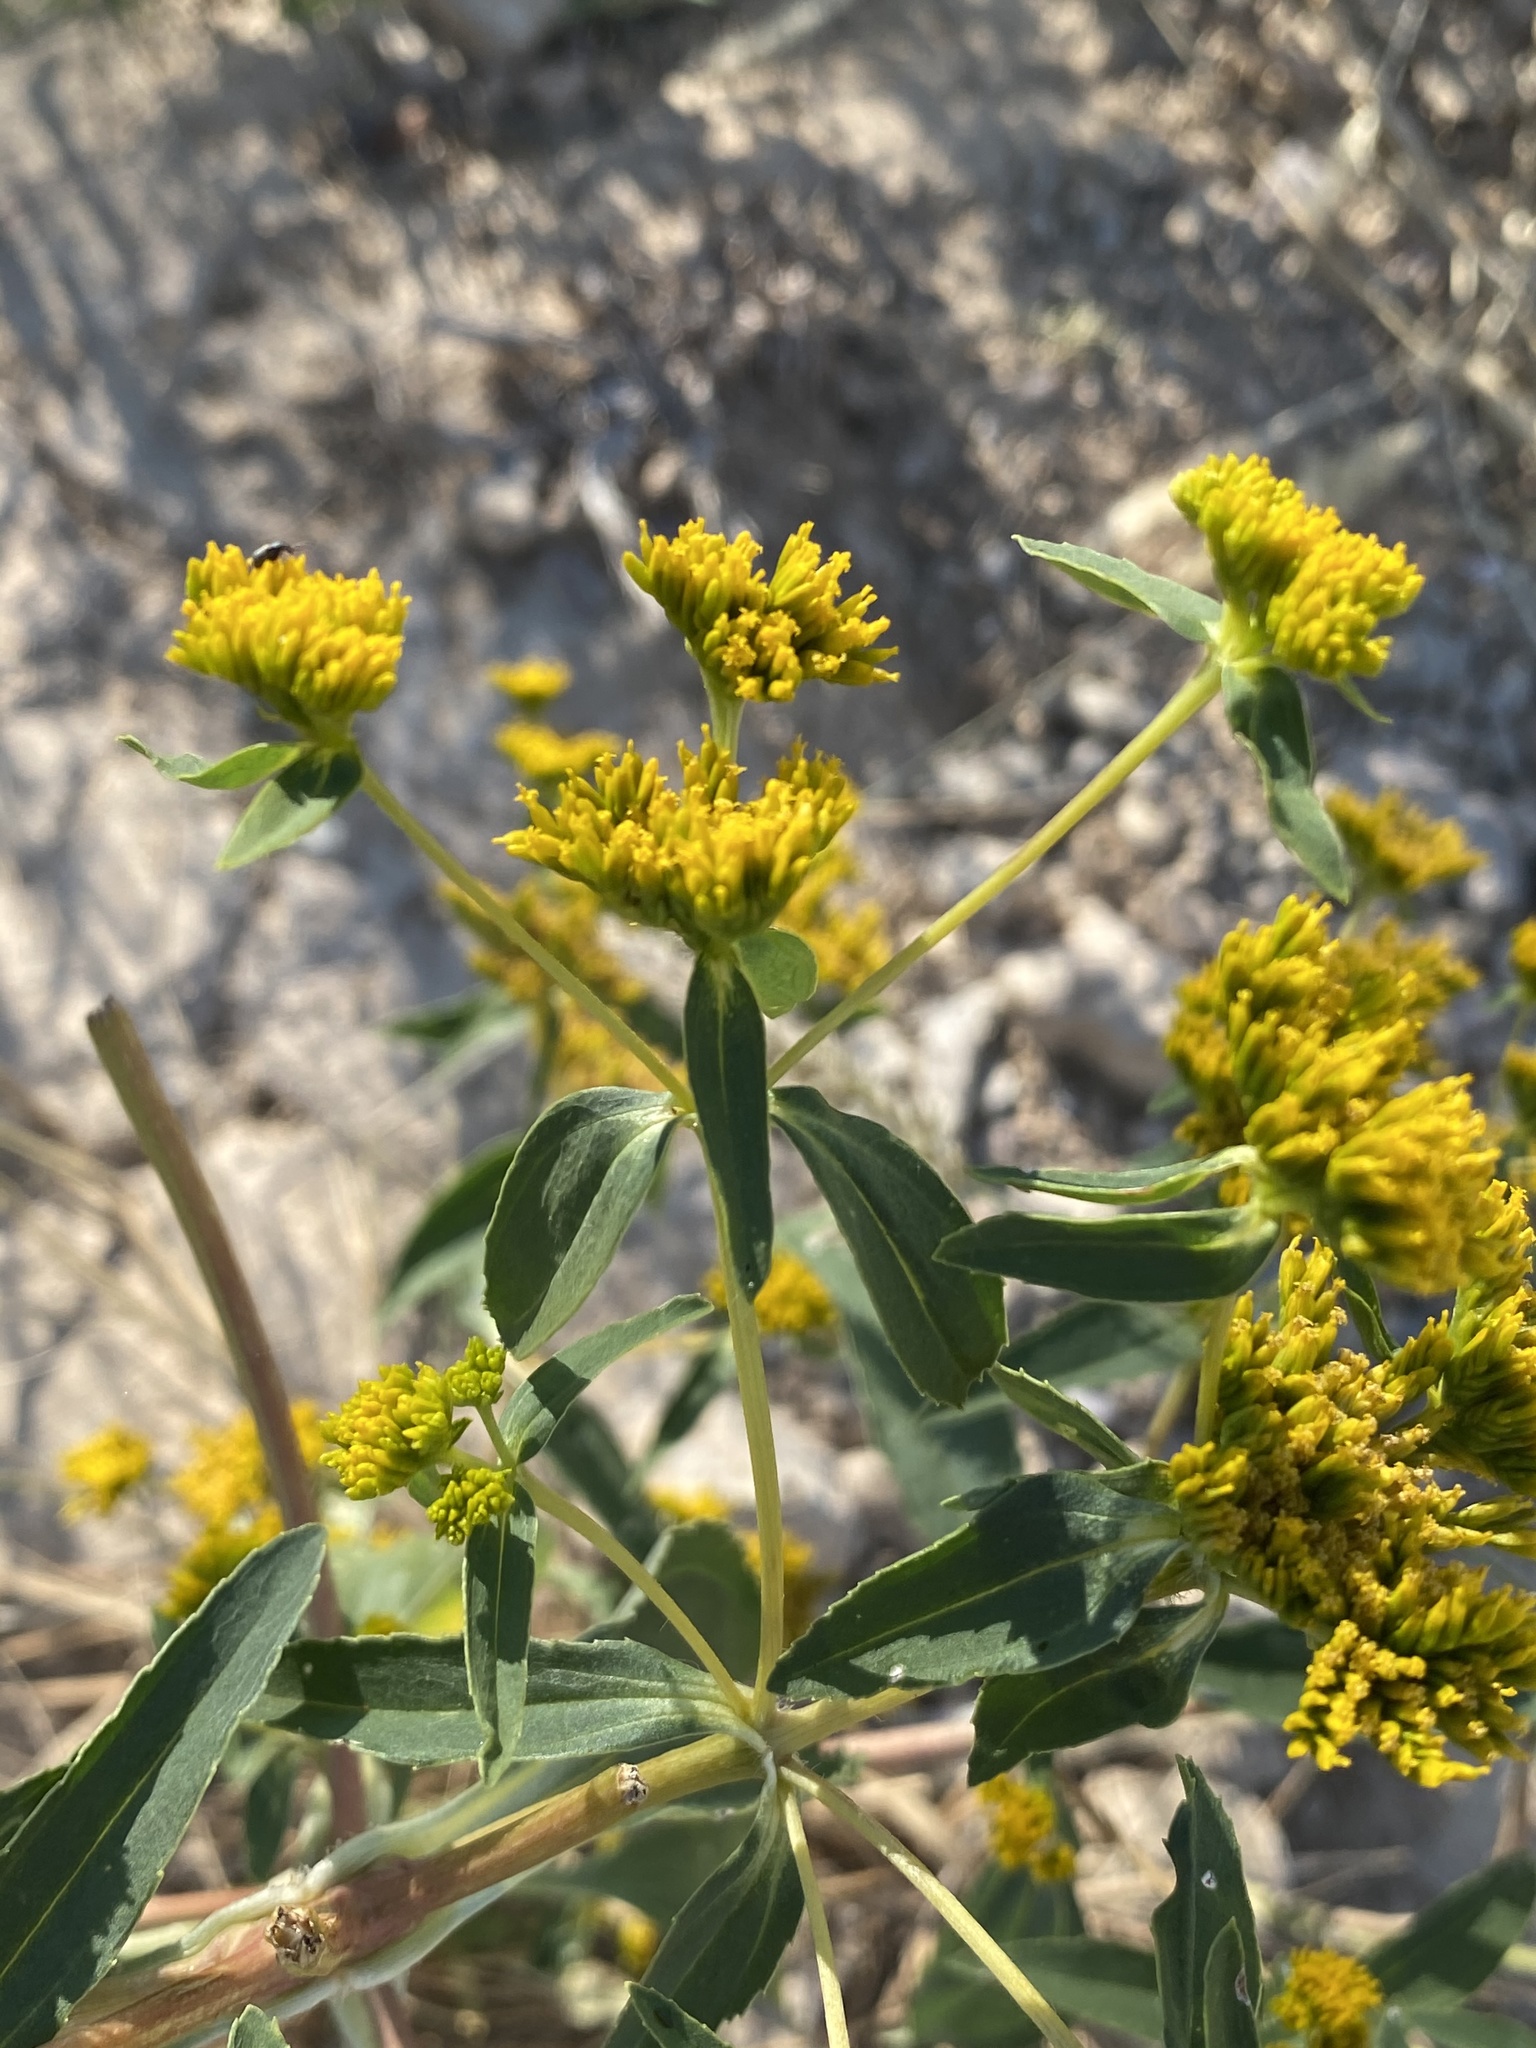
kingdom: Plantae
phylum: Tracheophyta
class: Magnoliopsida
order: Asterales
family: Asteraceae
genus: Flaveria
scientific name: Flaveria bidentis
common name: Coastal plain yellowtops
